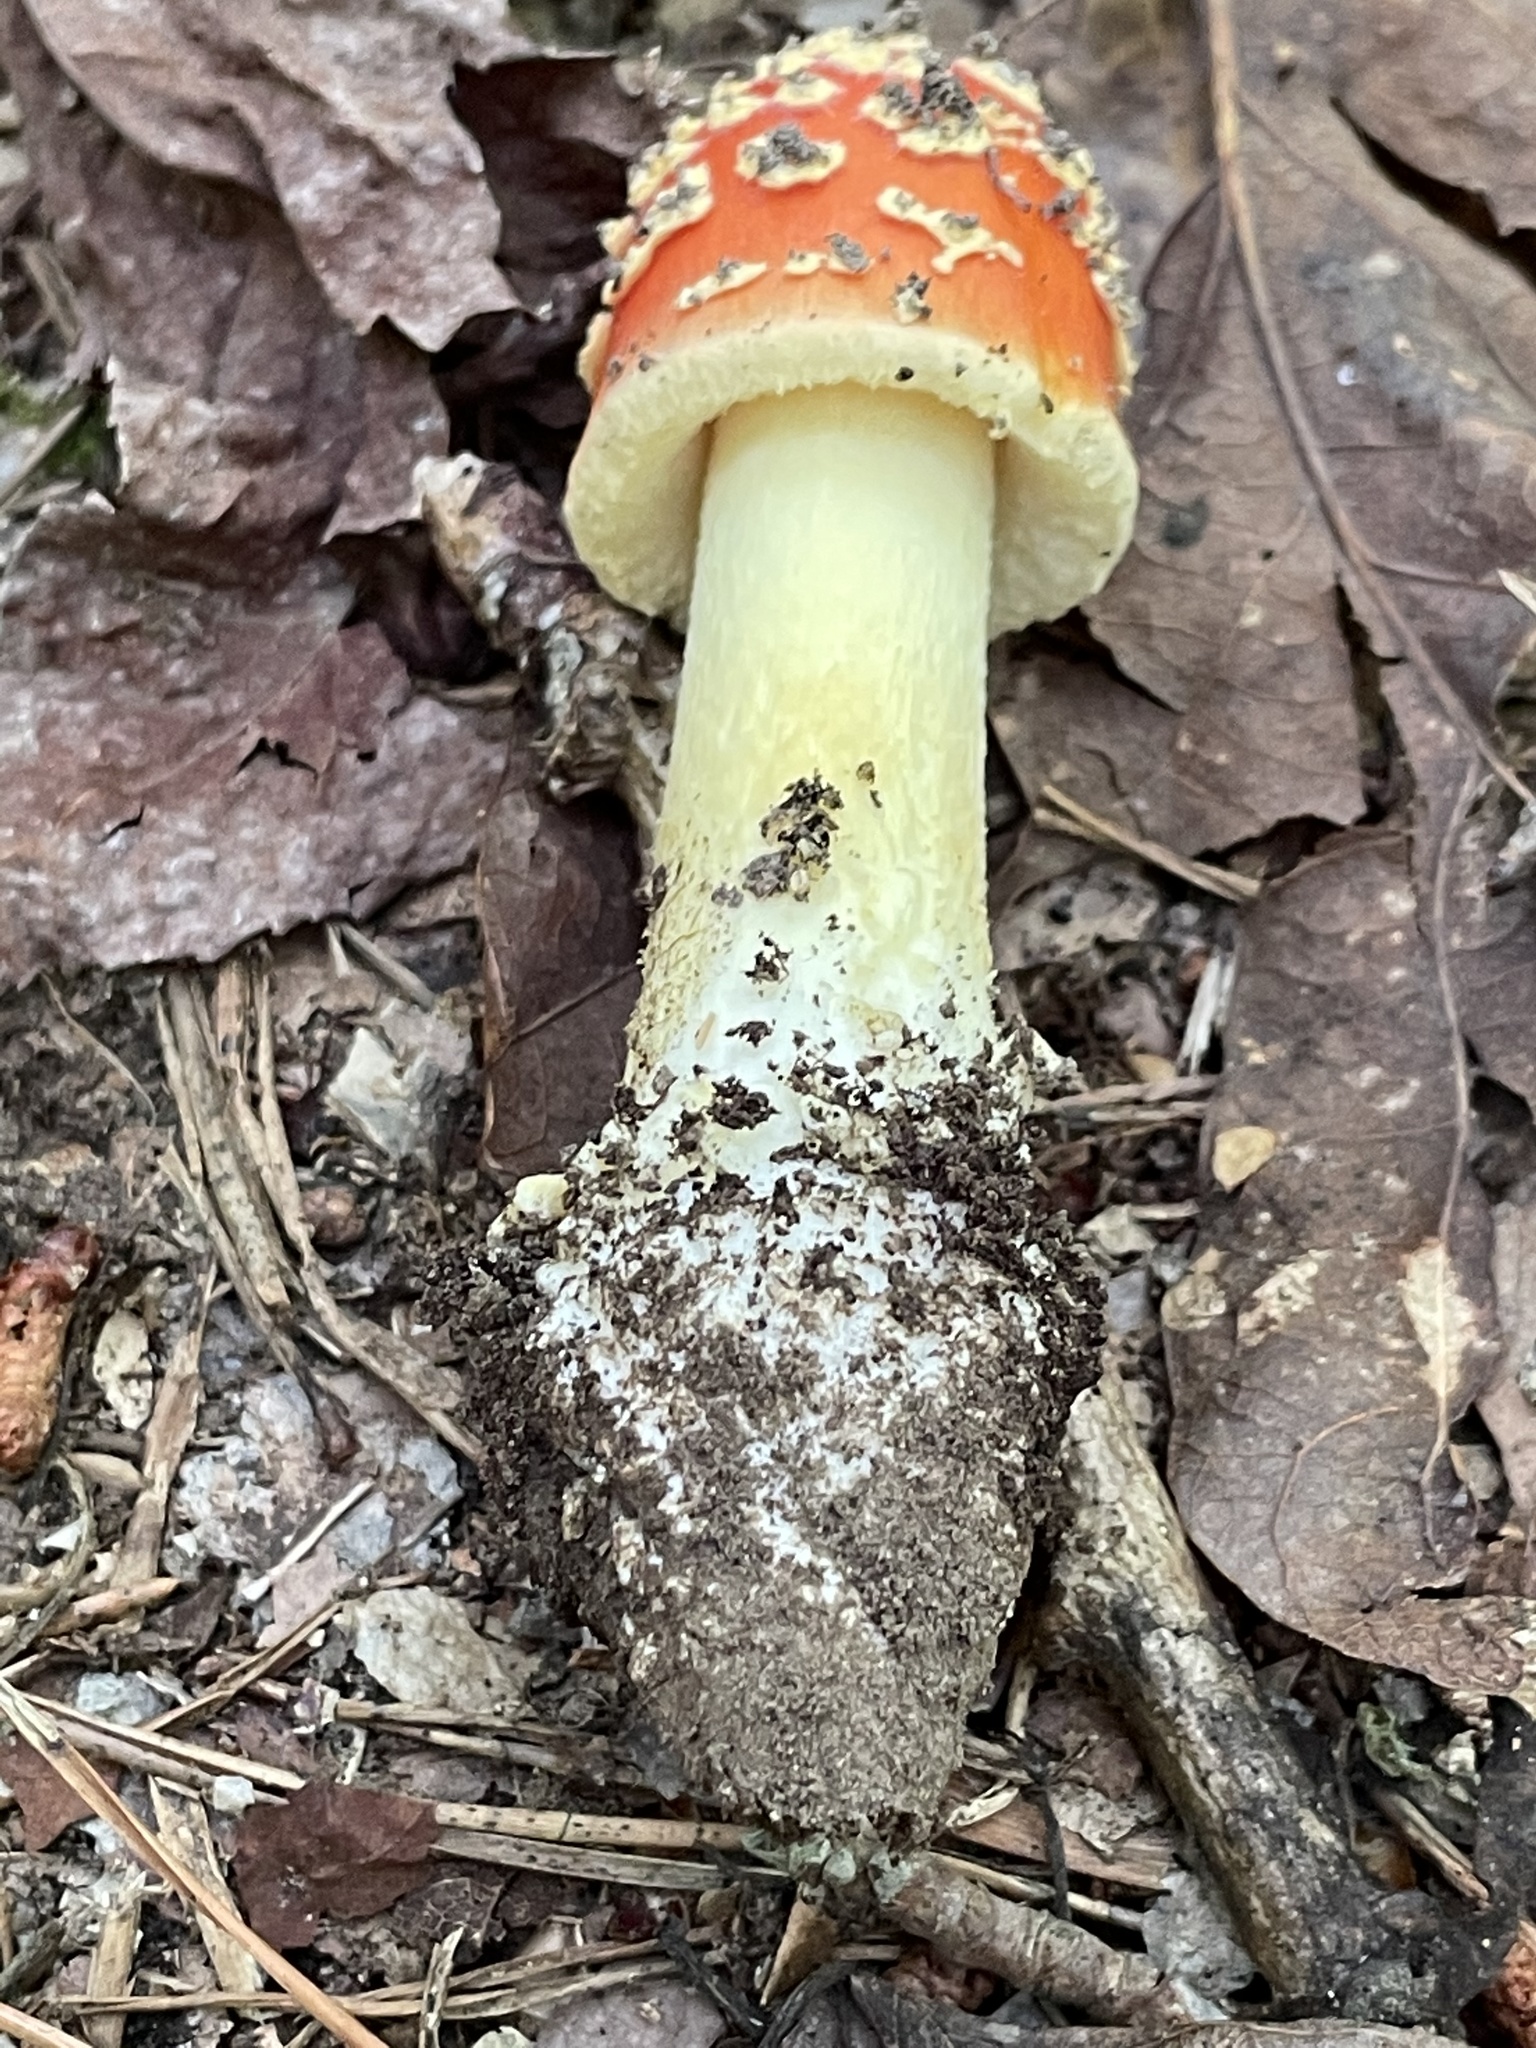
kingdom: Fungi
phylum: Basidiomycota
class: Agaricomycetes
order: Agaricales
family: Amanitaceae
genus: Amanita
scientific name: Amanita parcivolvata
